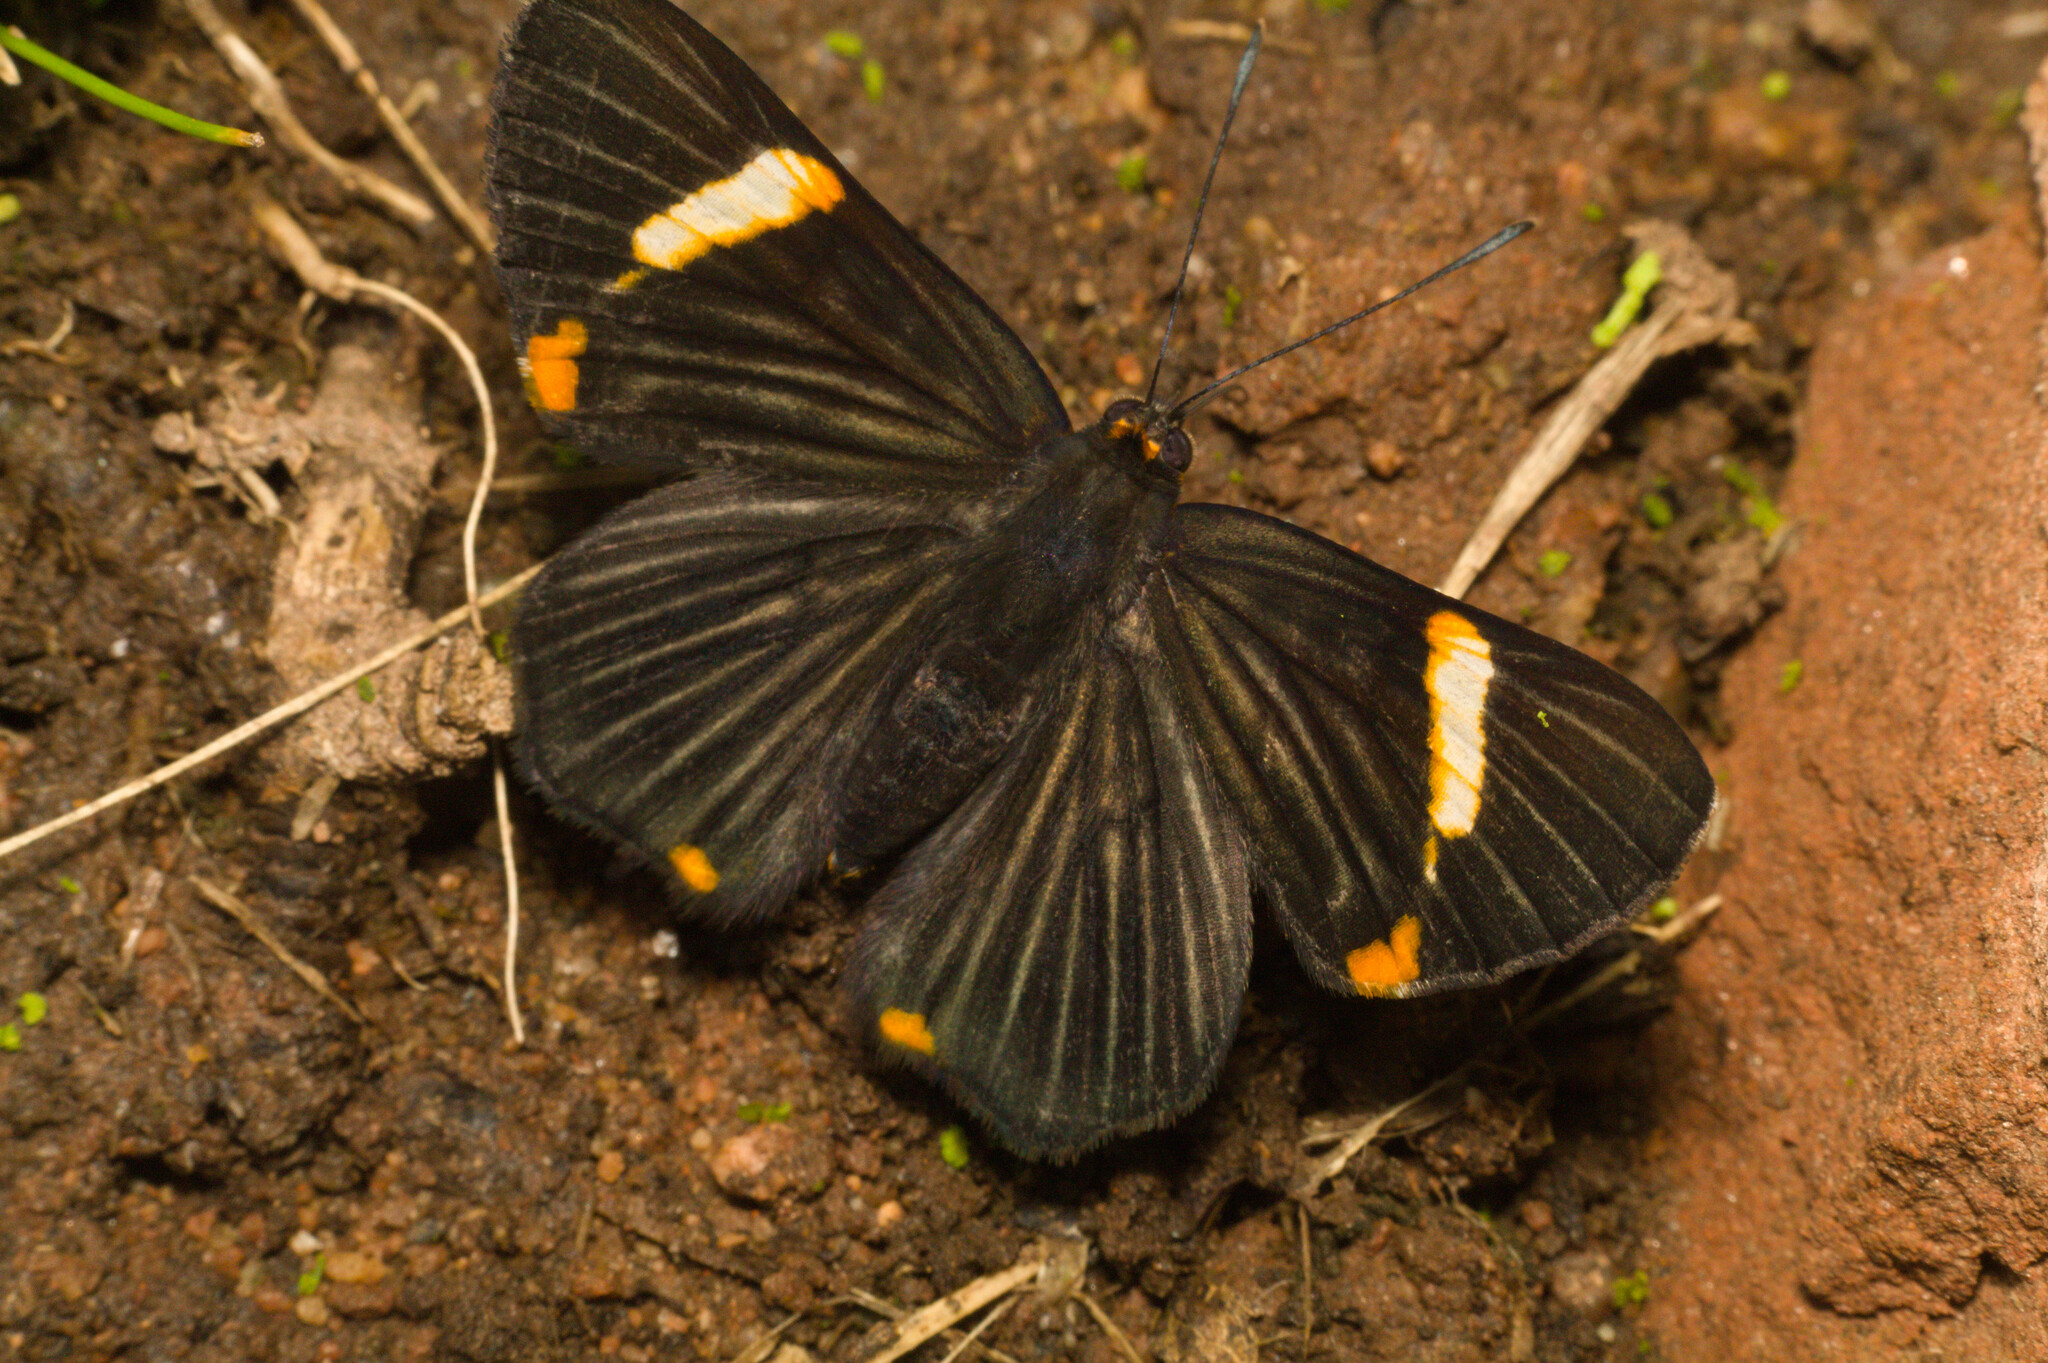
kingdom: Animalia
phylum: Arthropoda
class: Insecta
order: Lepidoptera
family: Riodinidae
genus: Riodina
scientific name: Riodina lycisca
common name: Lycisca metalmark
